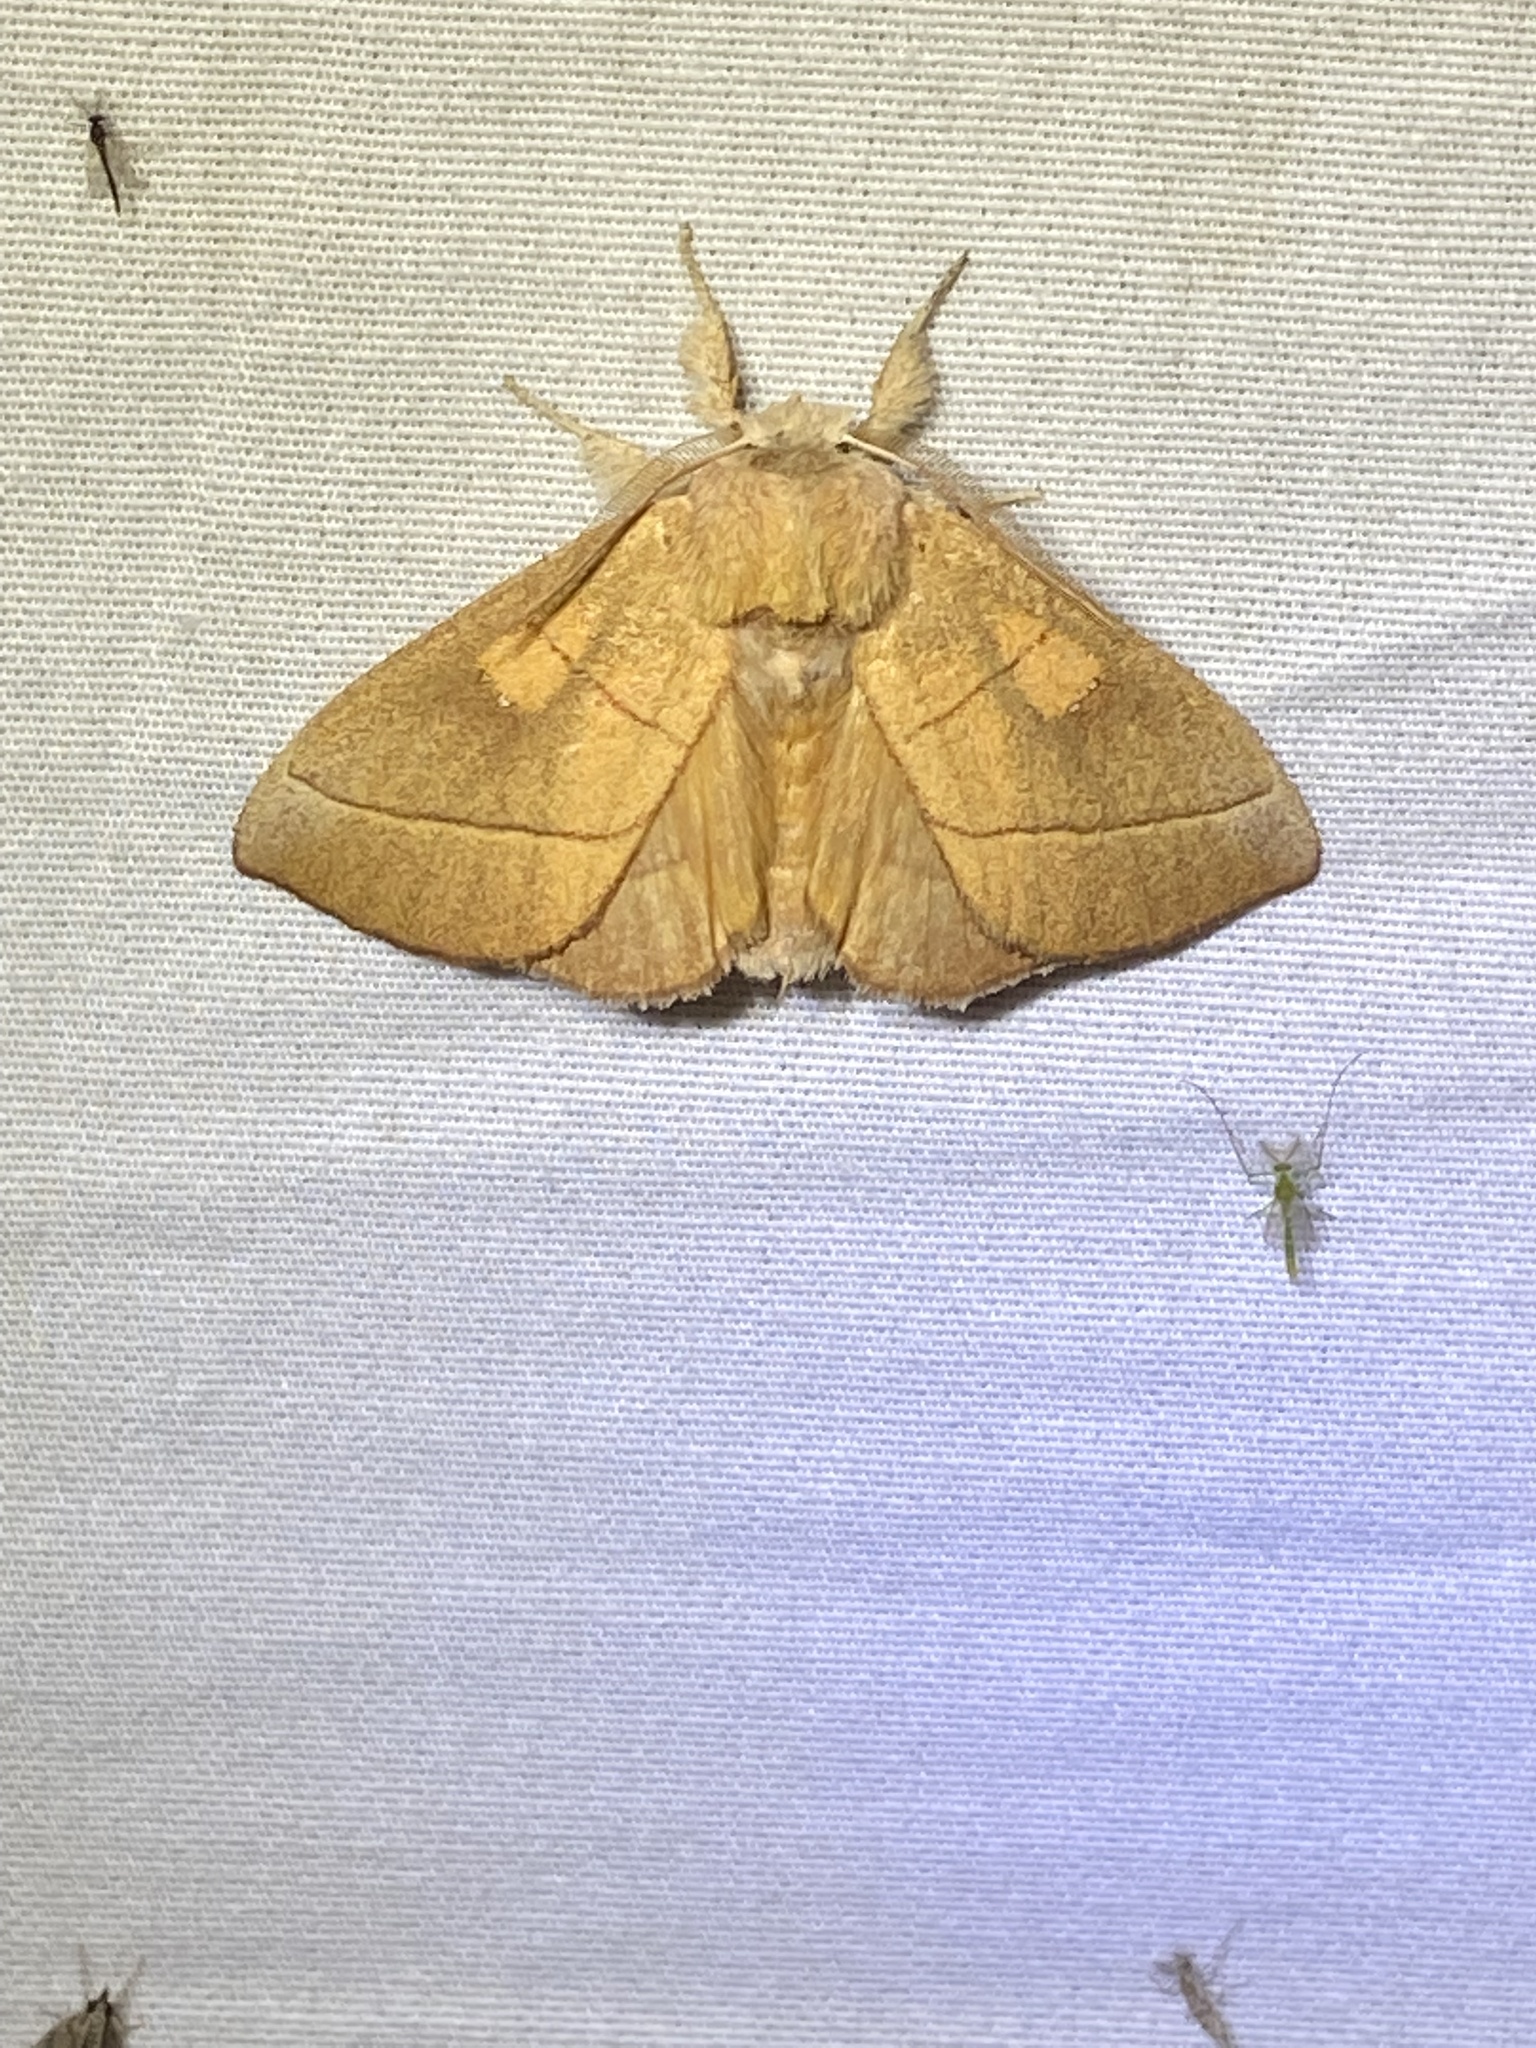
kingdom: Animalia
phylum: Arthropoda
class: Insecta
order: Lepidoptera
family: Notodontidae
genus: Nadata
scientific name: Nadata gibbosa
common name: White-dotted prominent
